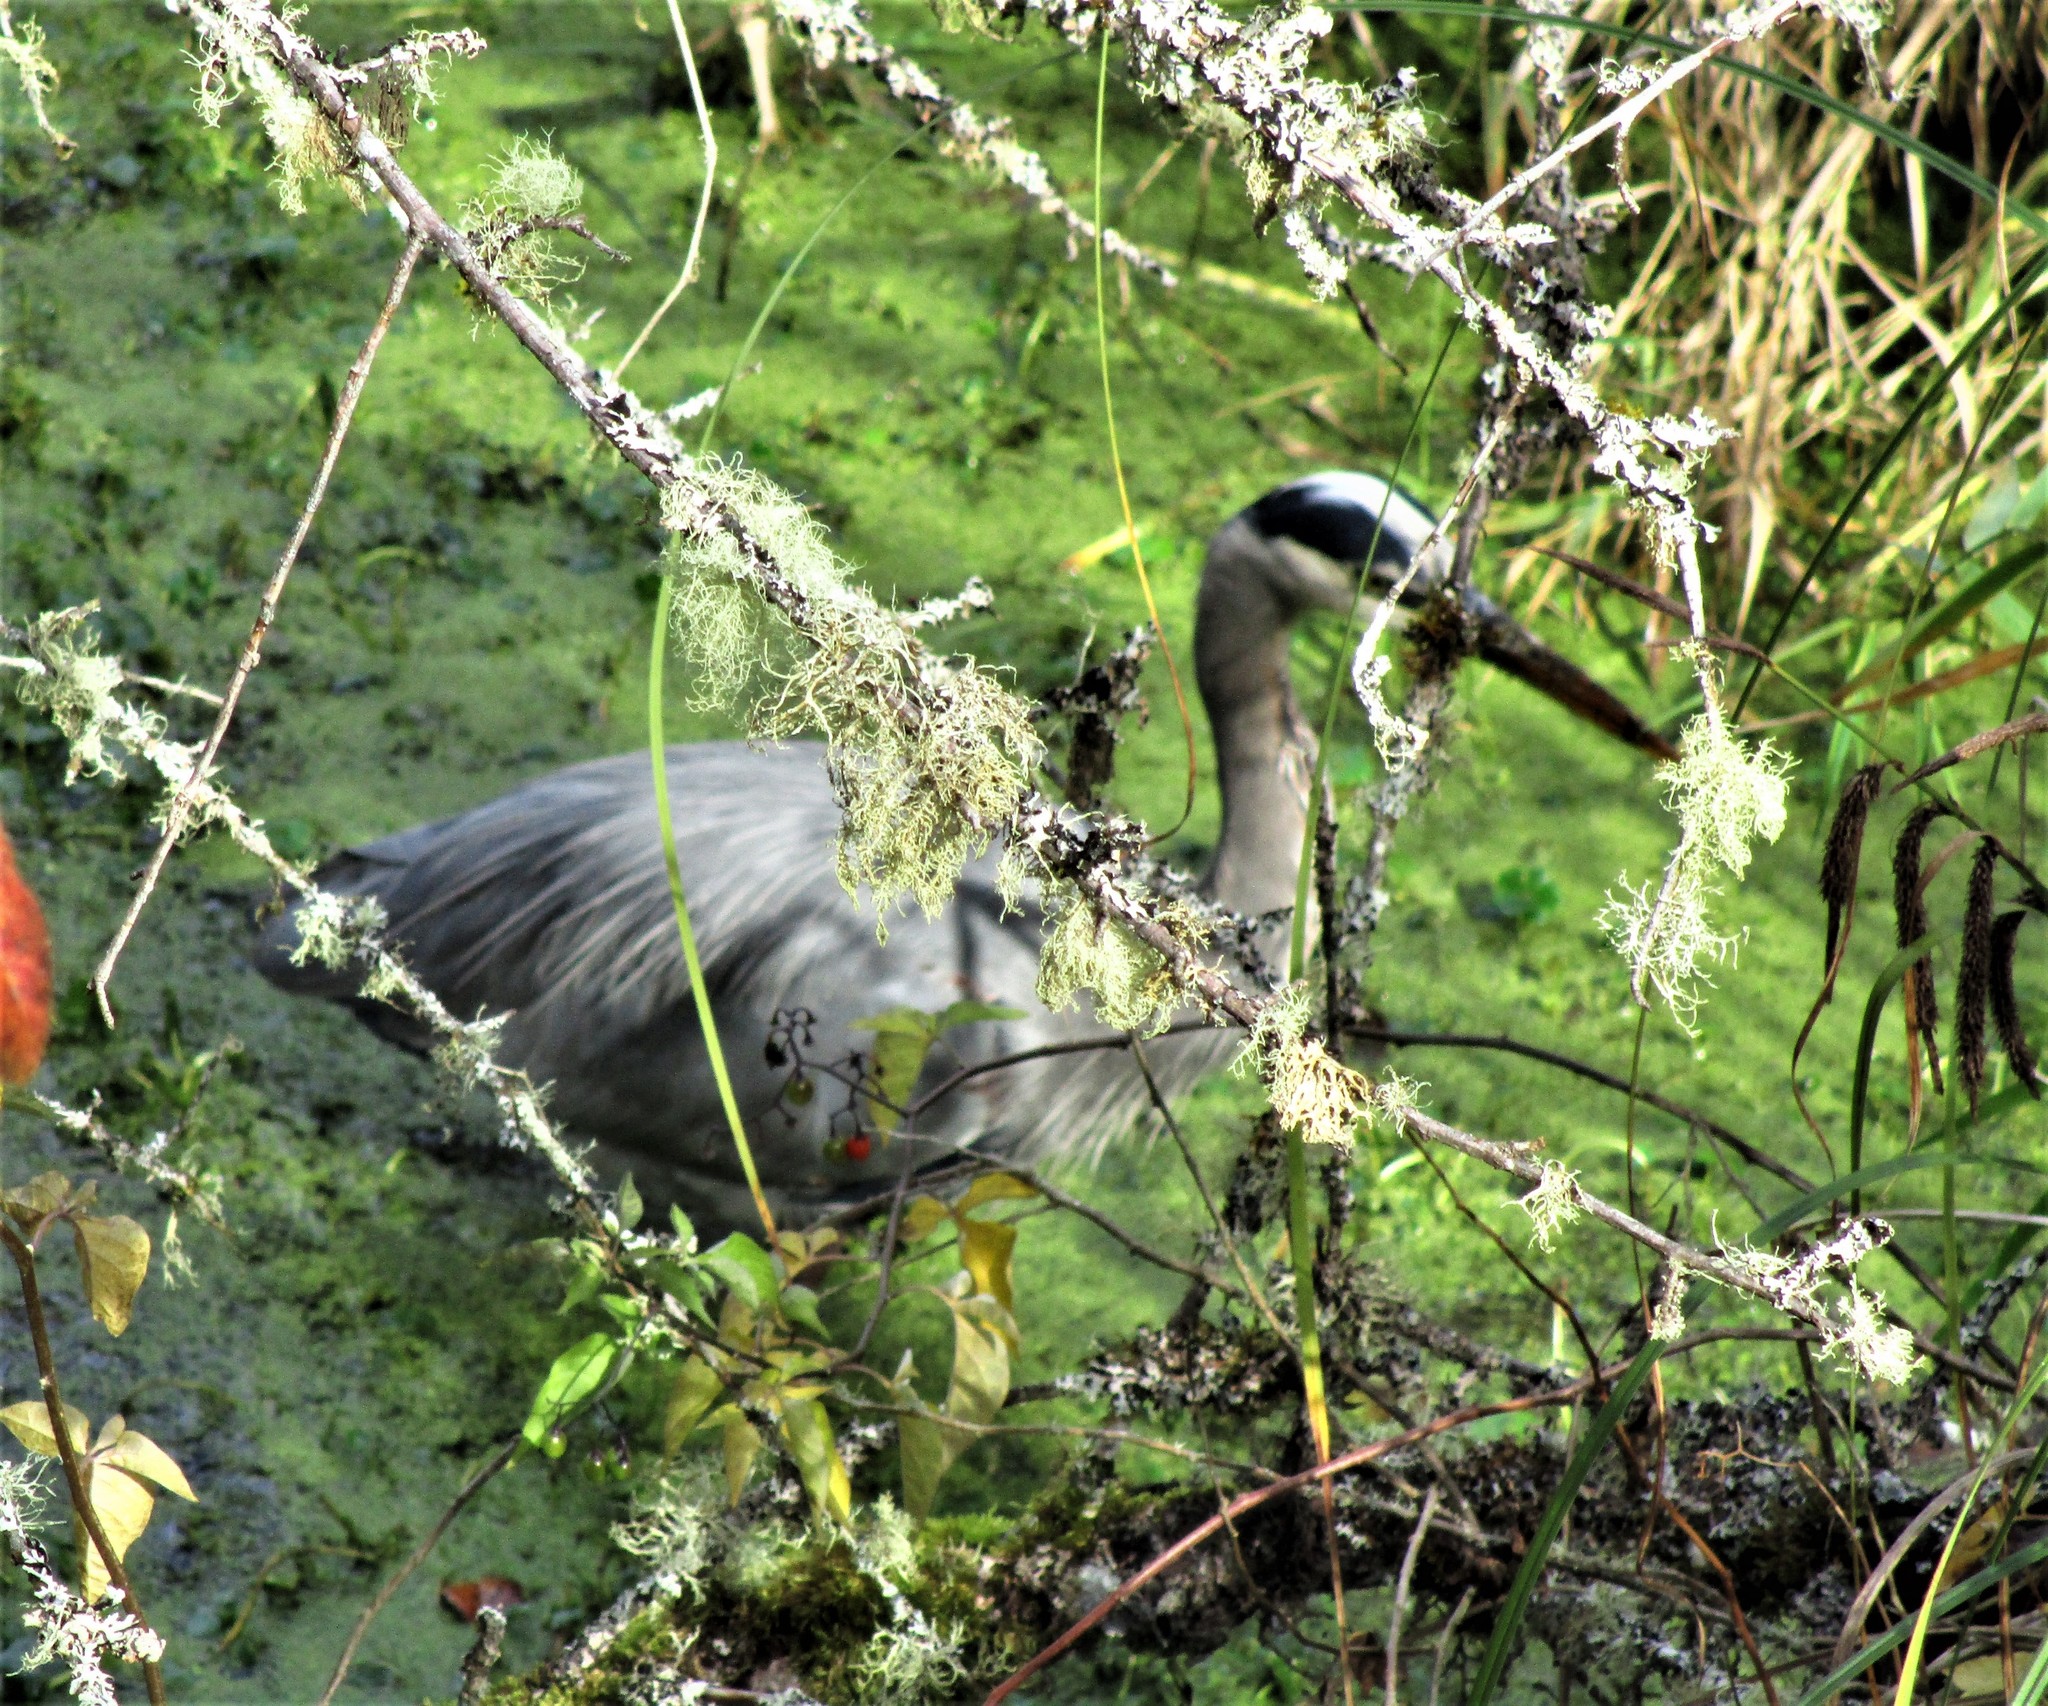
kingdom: Animalia
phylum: Chordata
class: Aves
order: Pelecaniformes
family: Ardeidae
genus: Ardea
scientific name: Ardea herodias
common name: Great blue heron
